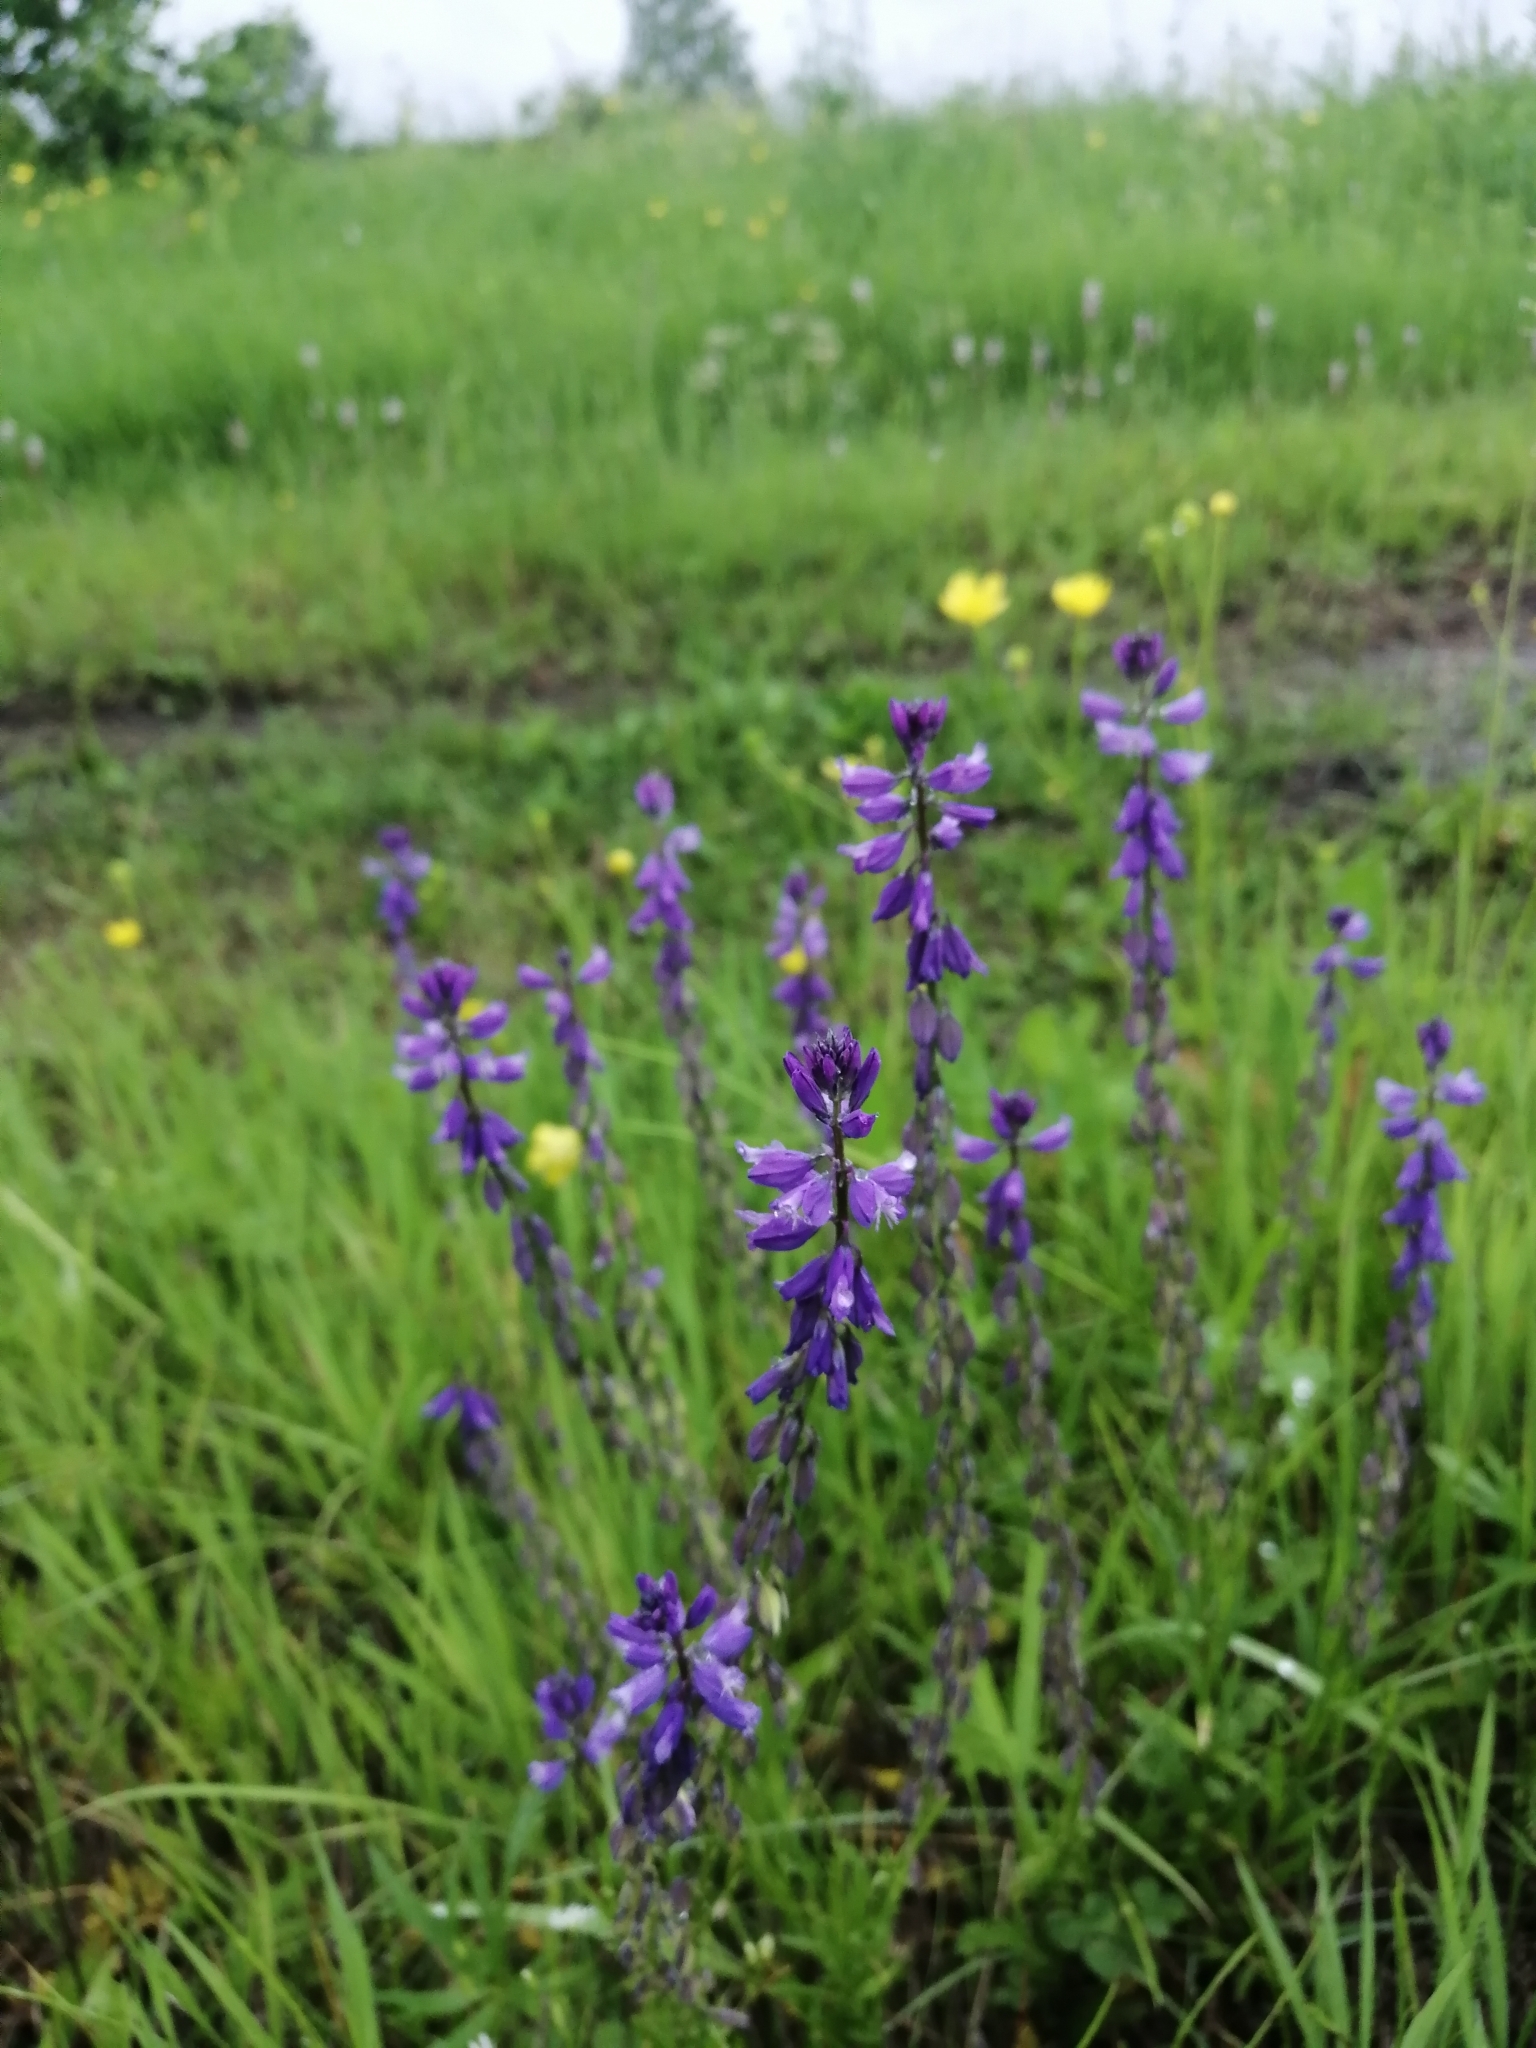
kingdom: Plantae
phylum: Tracheophyta
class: Magnoliopsida
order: Fabales
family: Polygalaceae
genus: Polygala
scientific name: Polygala comosa
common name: Tufted milkwort
